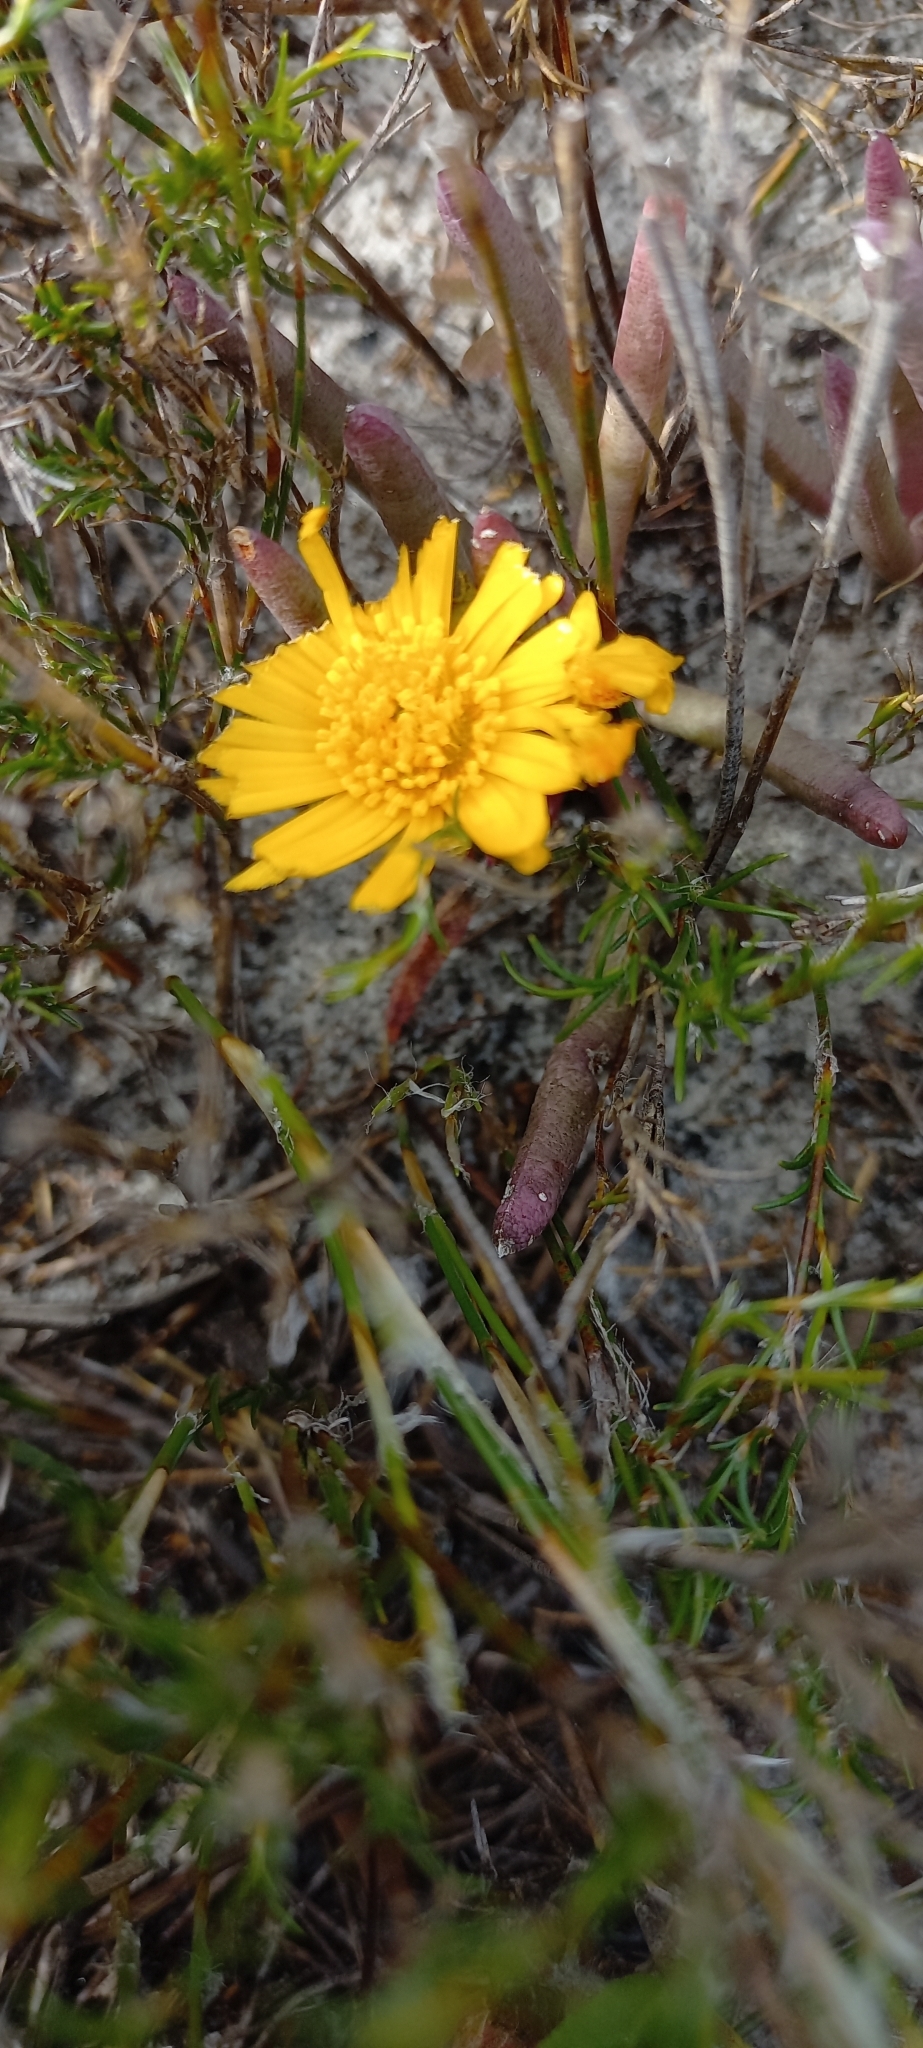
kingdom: Plantae
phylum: Tracheophyta
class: Magnoliopsida
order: Caryophyllales
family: Aizoaceae
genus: Jordaaniella
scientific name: Jordaaniella dubia
